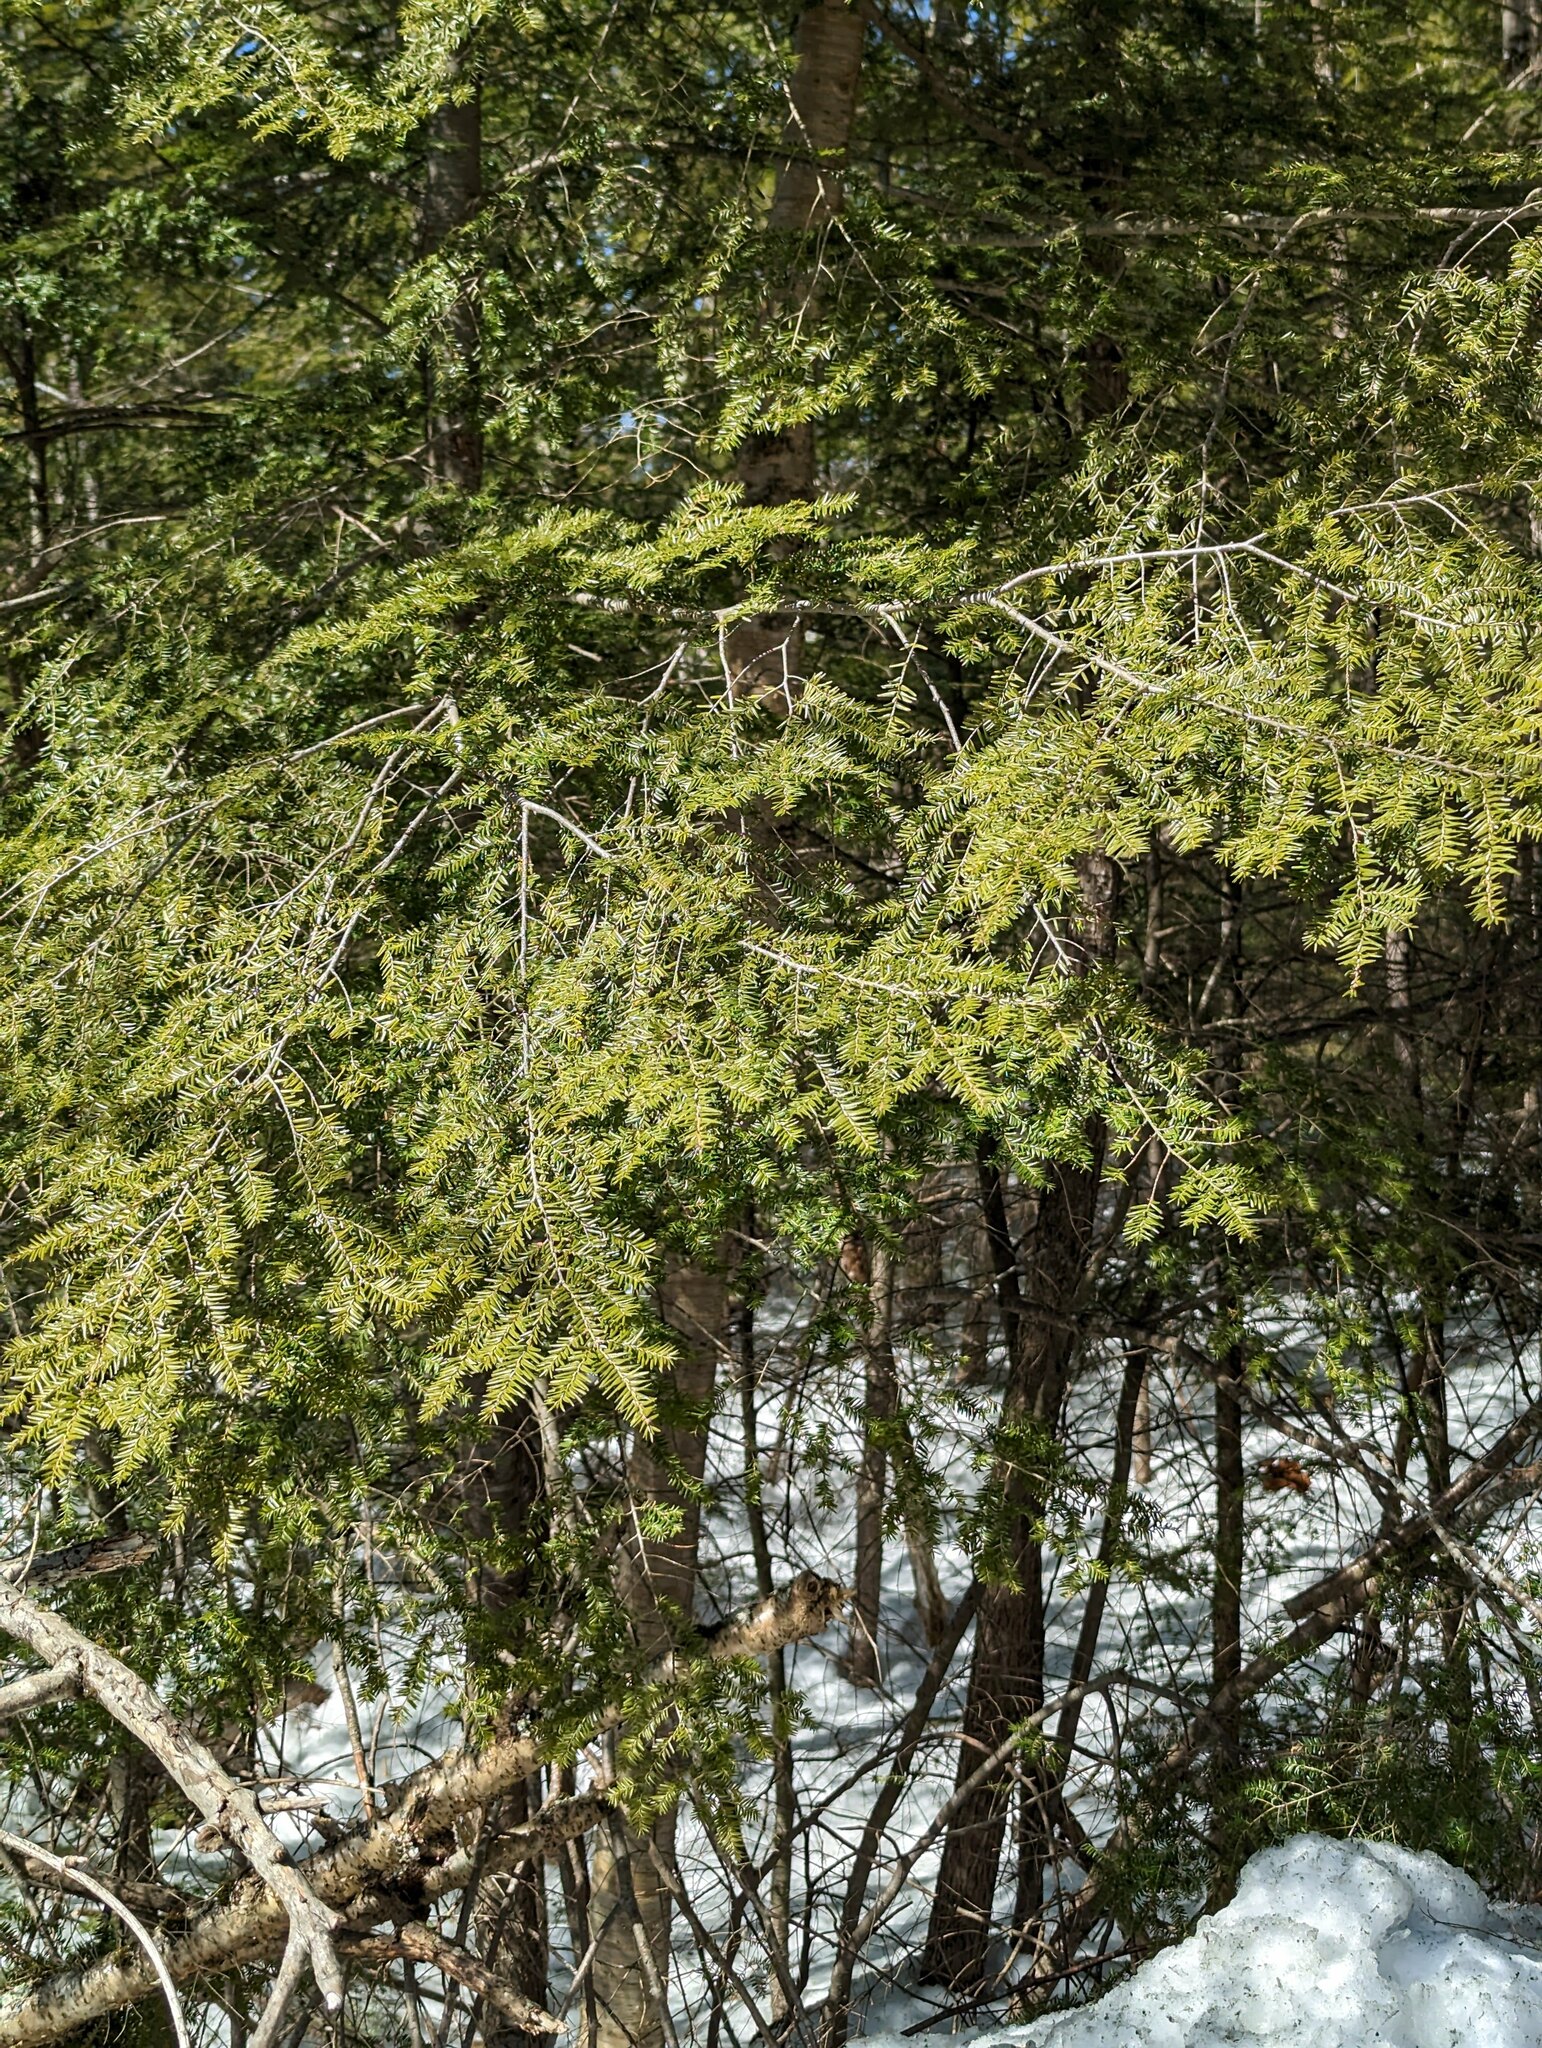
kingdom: Plantae
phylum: Tracheophyta
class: Pinopsida
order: Pinales
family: Pinaceae
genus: Tsuga
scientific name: Tsuga canadensis
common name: Eastern hemlock
